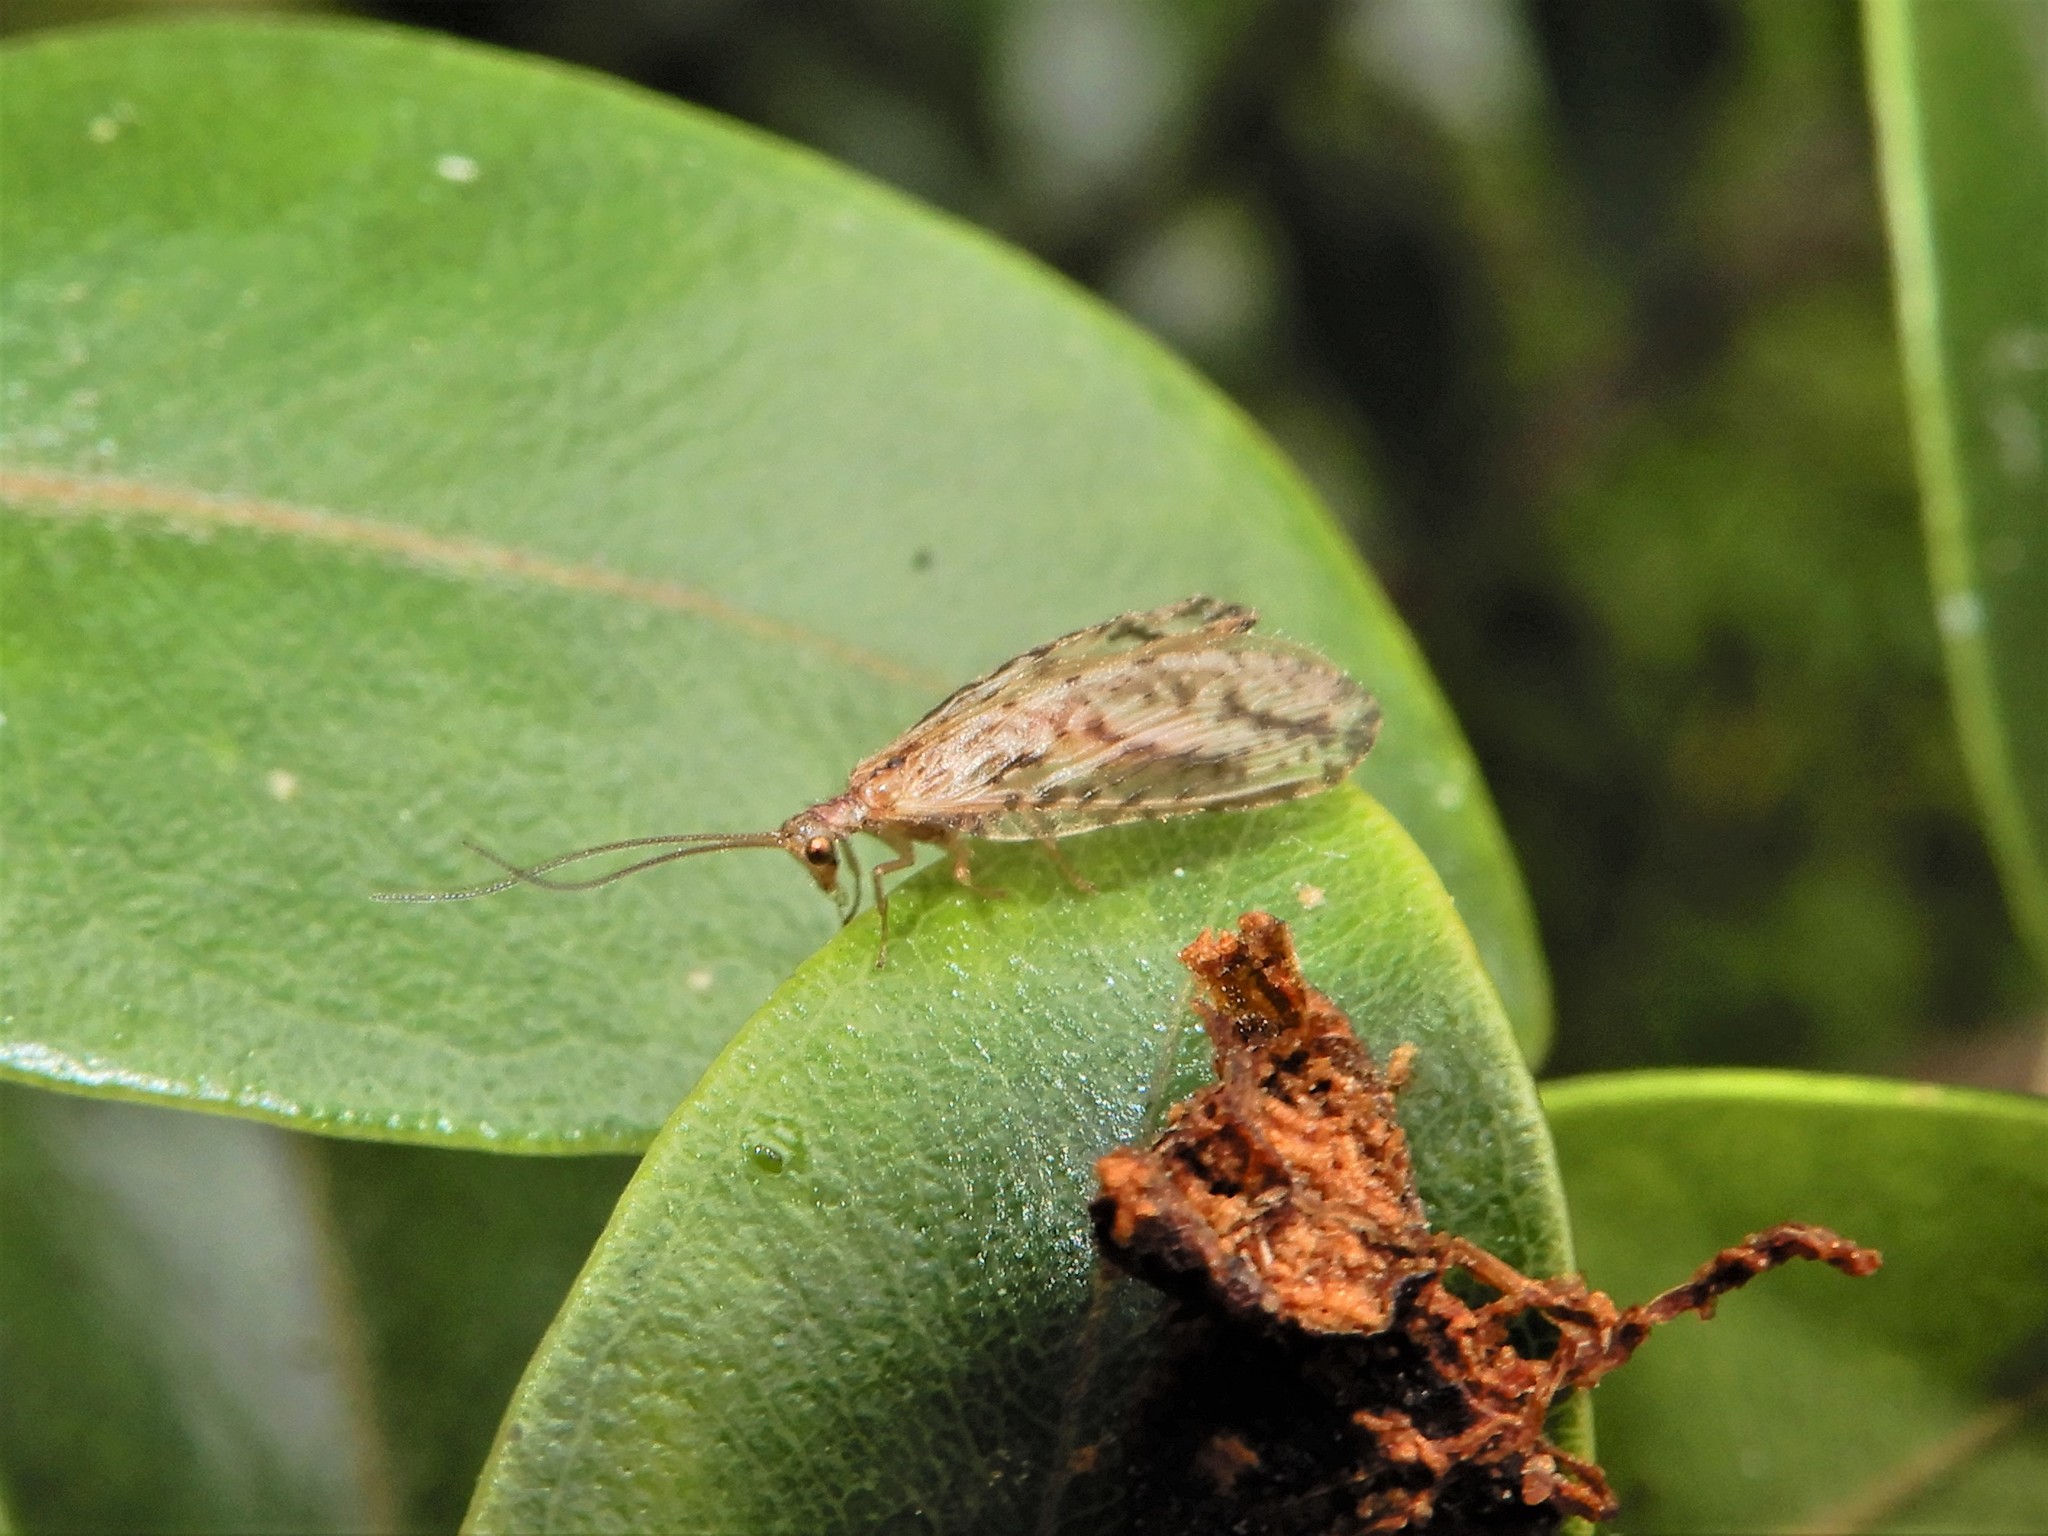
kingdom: Animalia
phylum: Arthropoda
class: Insecta
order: Neuroptera
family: Hemerobiidae
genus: Micromus
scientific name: Micromus bifasciatus
